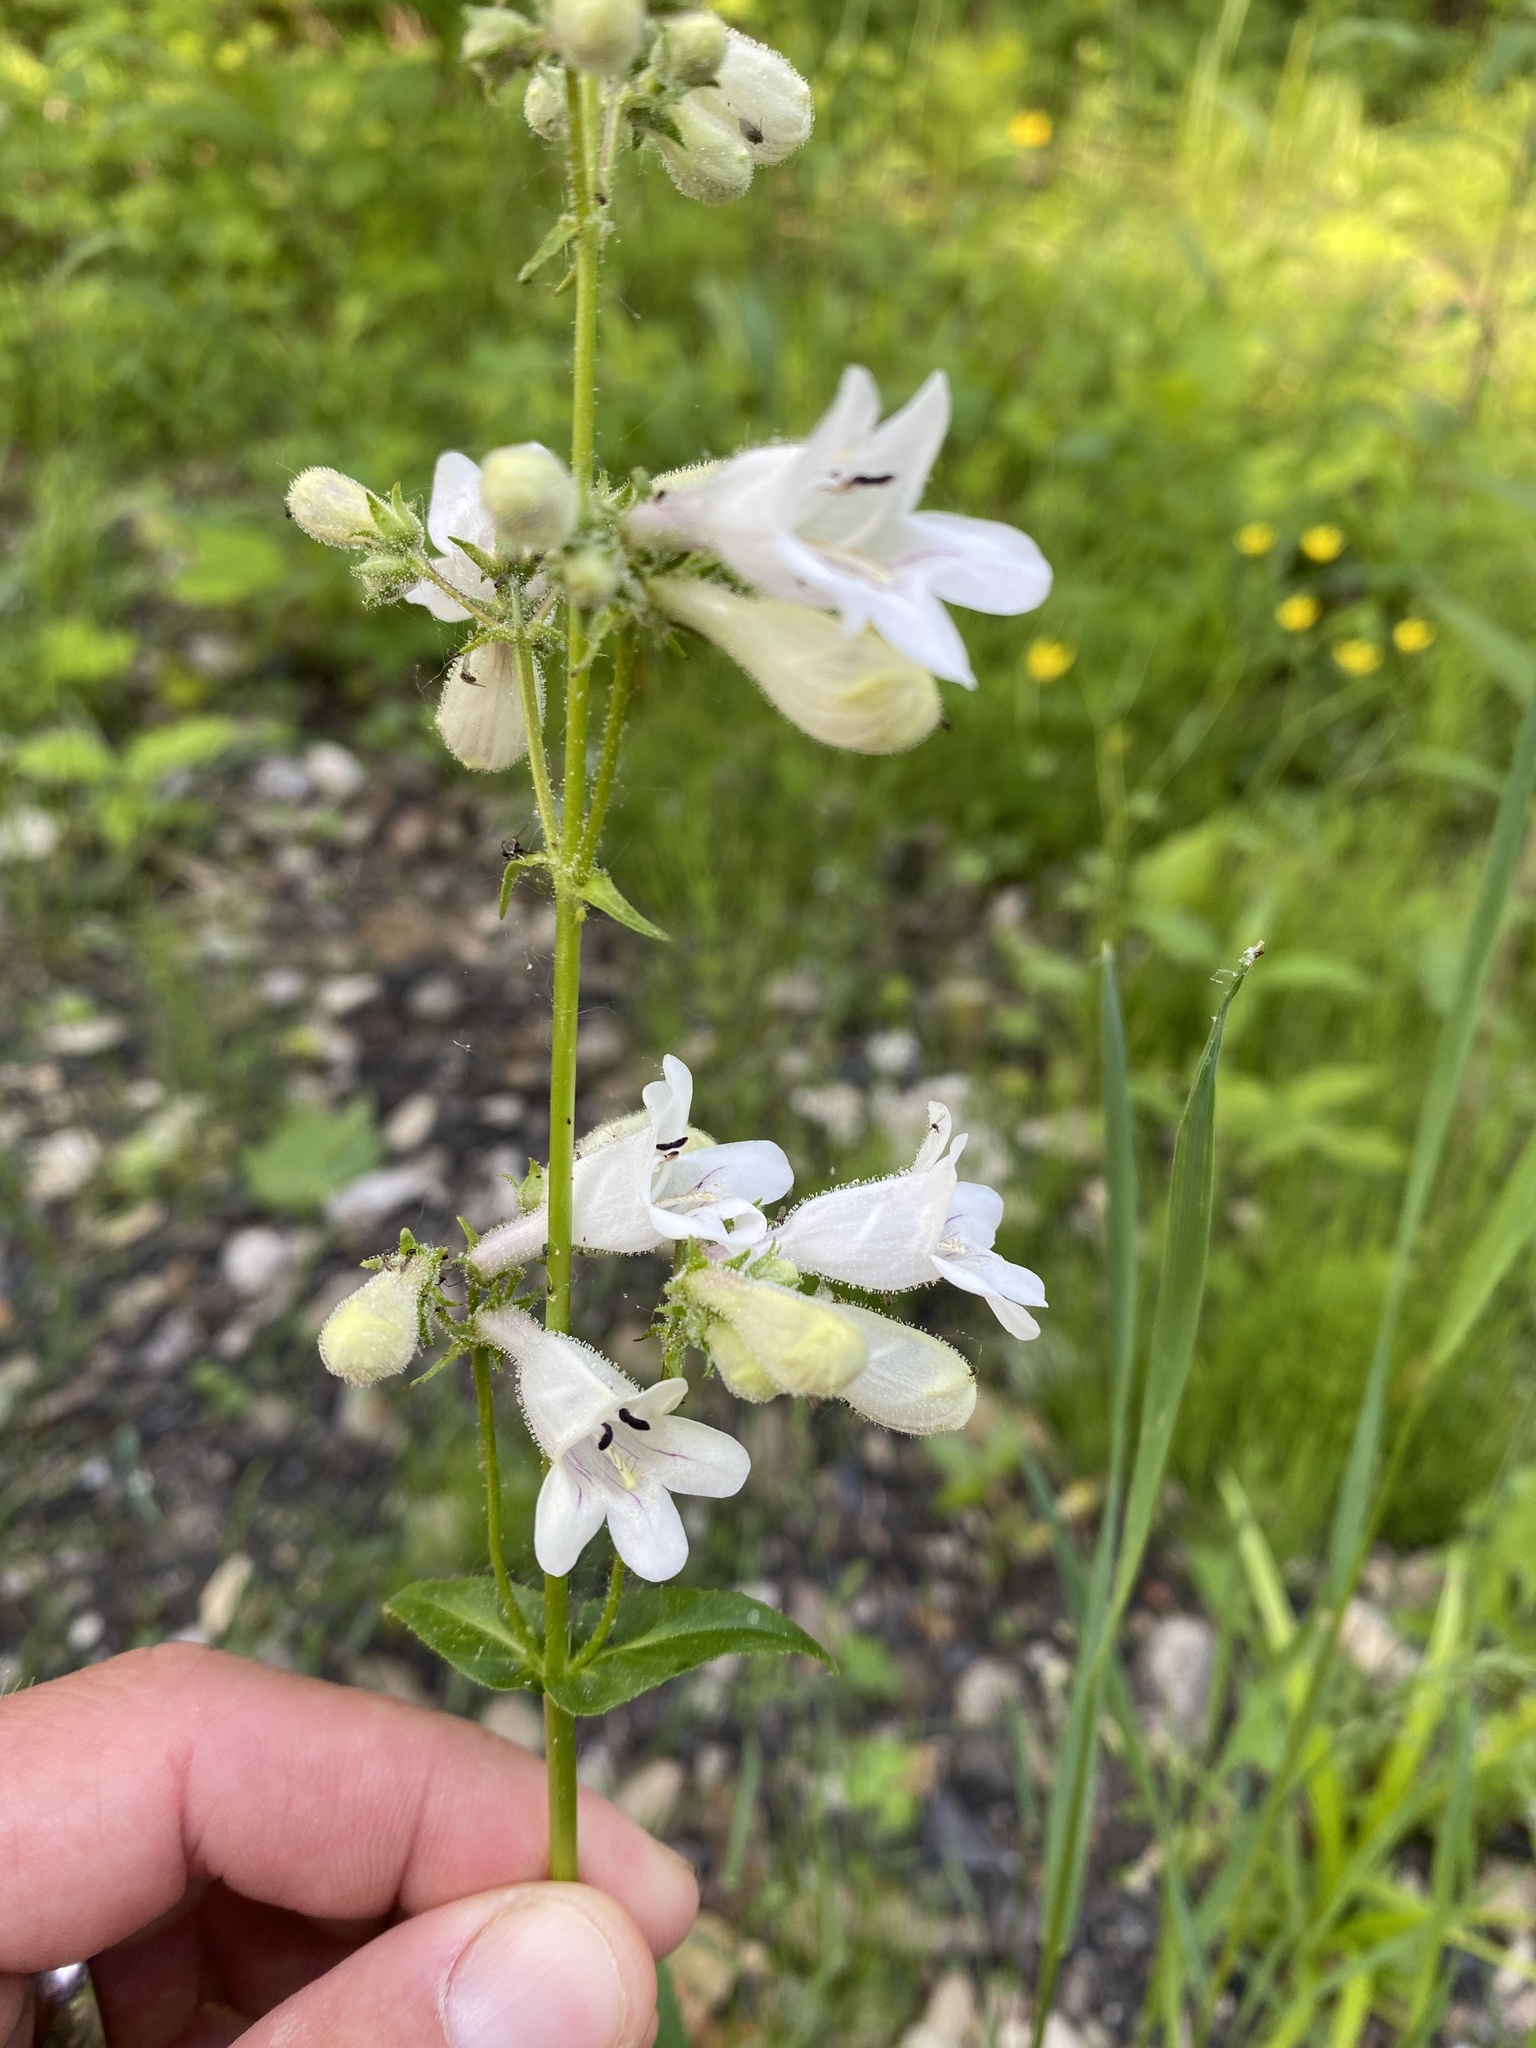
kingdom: Plantae
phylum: Tracheophyta
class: Magnoliopsida
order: Lamiales
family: Plantaginaceae
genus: Penstemon
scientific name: Penstemon digitalis
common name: Foxglove beardtongue
